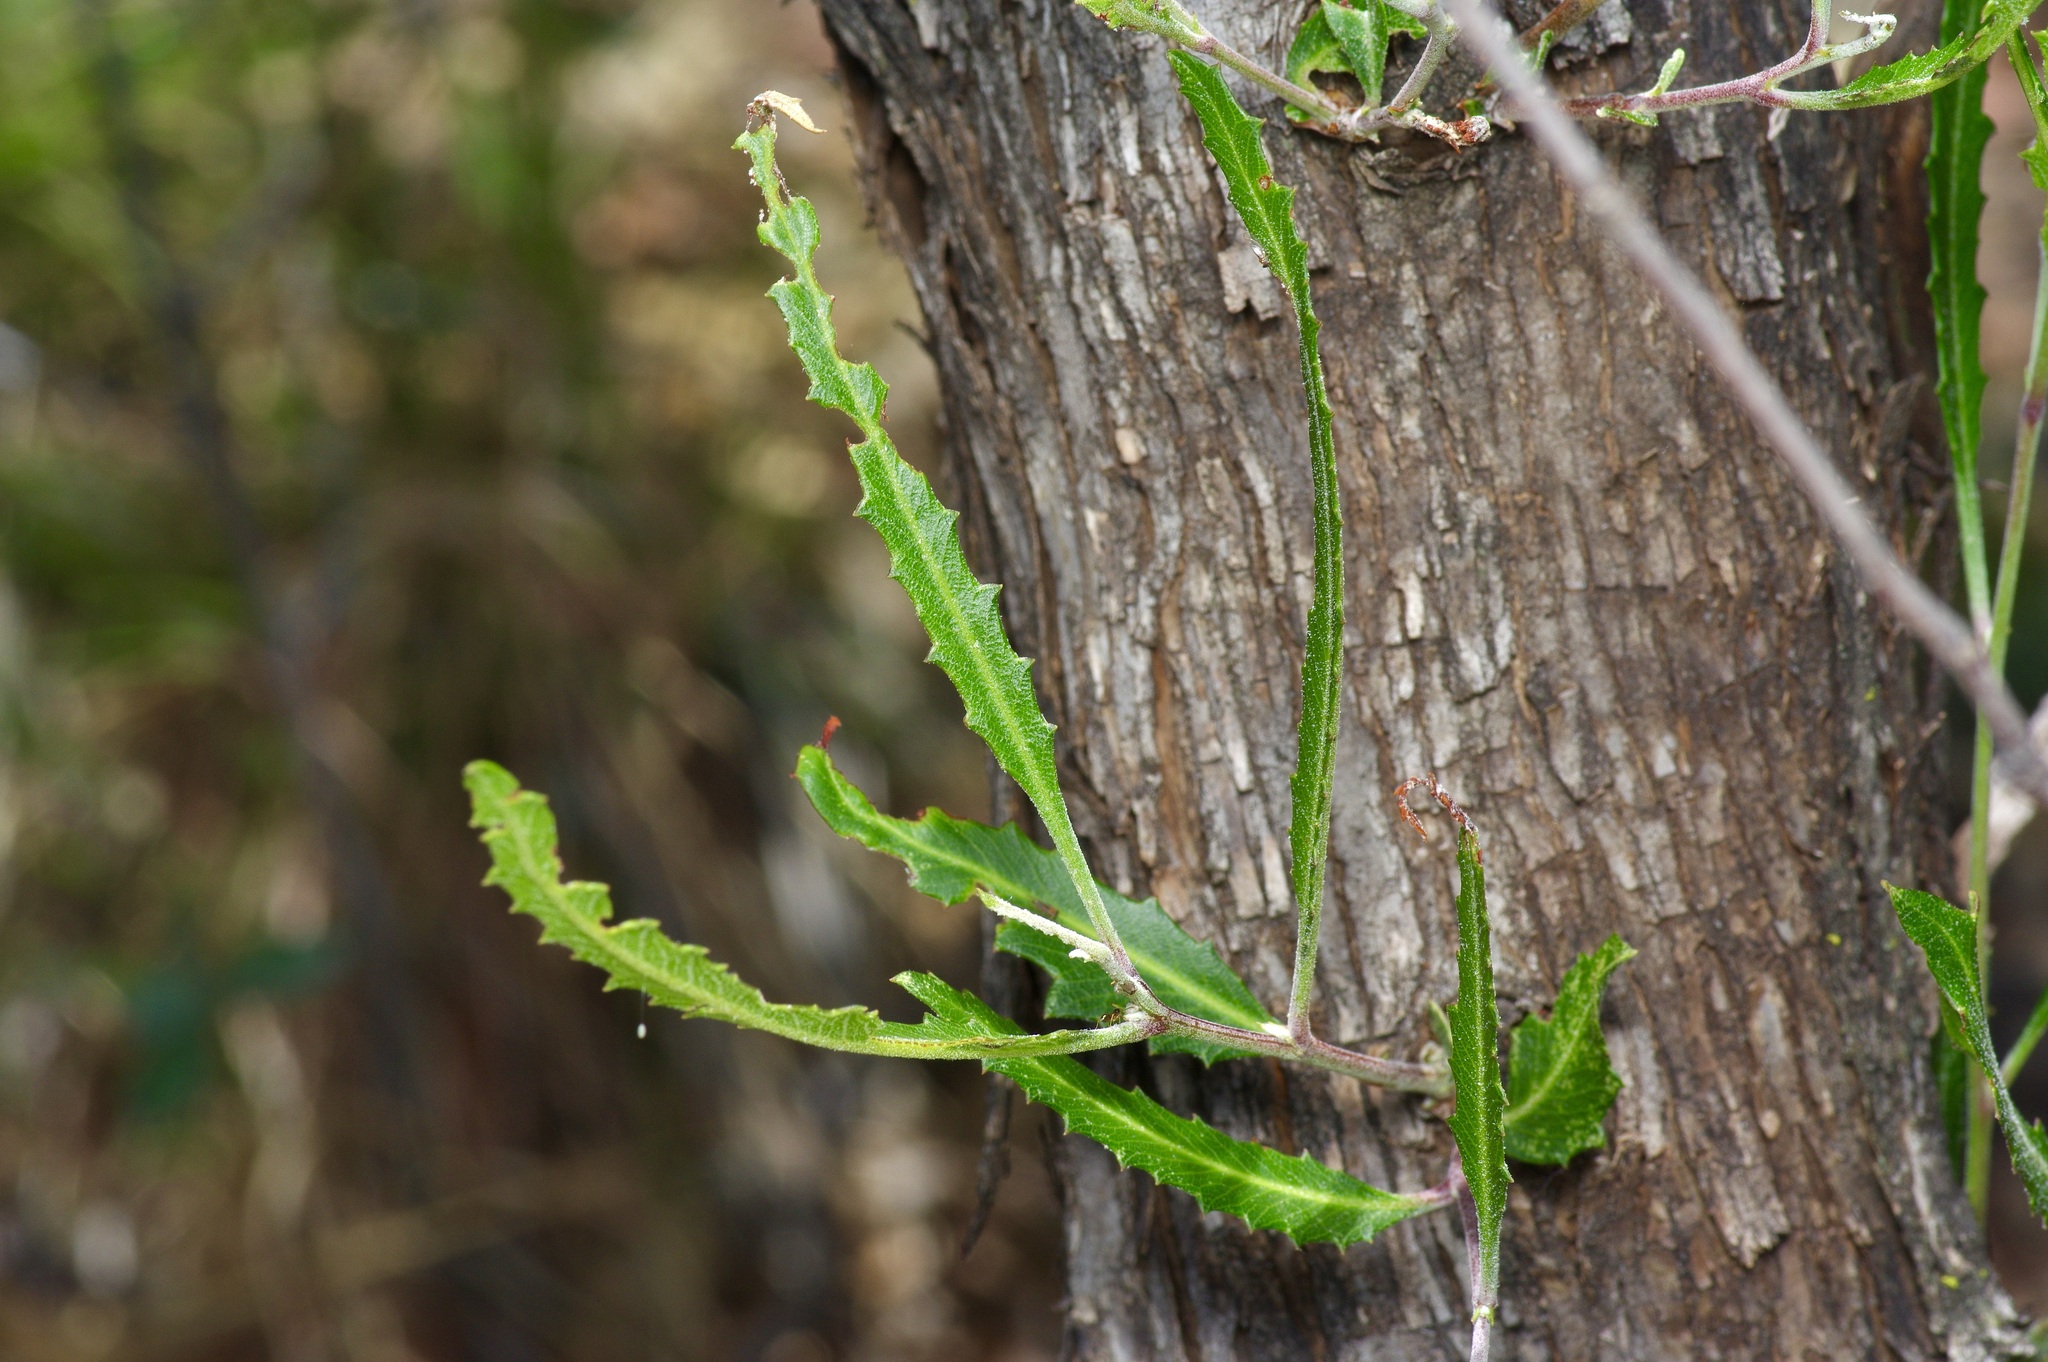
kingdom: Plantae
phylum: Tracheophyta
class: Magnoliopsida
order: Rosales
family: Rosaceae
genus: Vauquelinia
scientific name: Vauquelinia corymbosa
